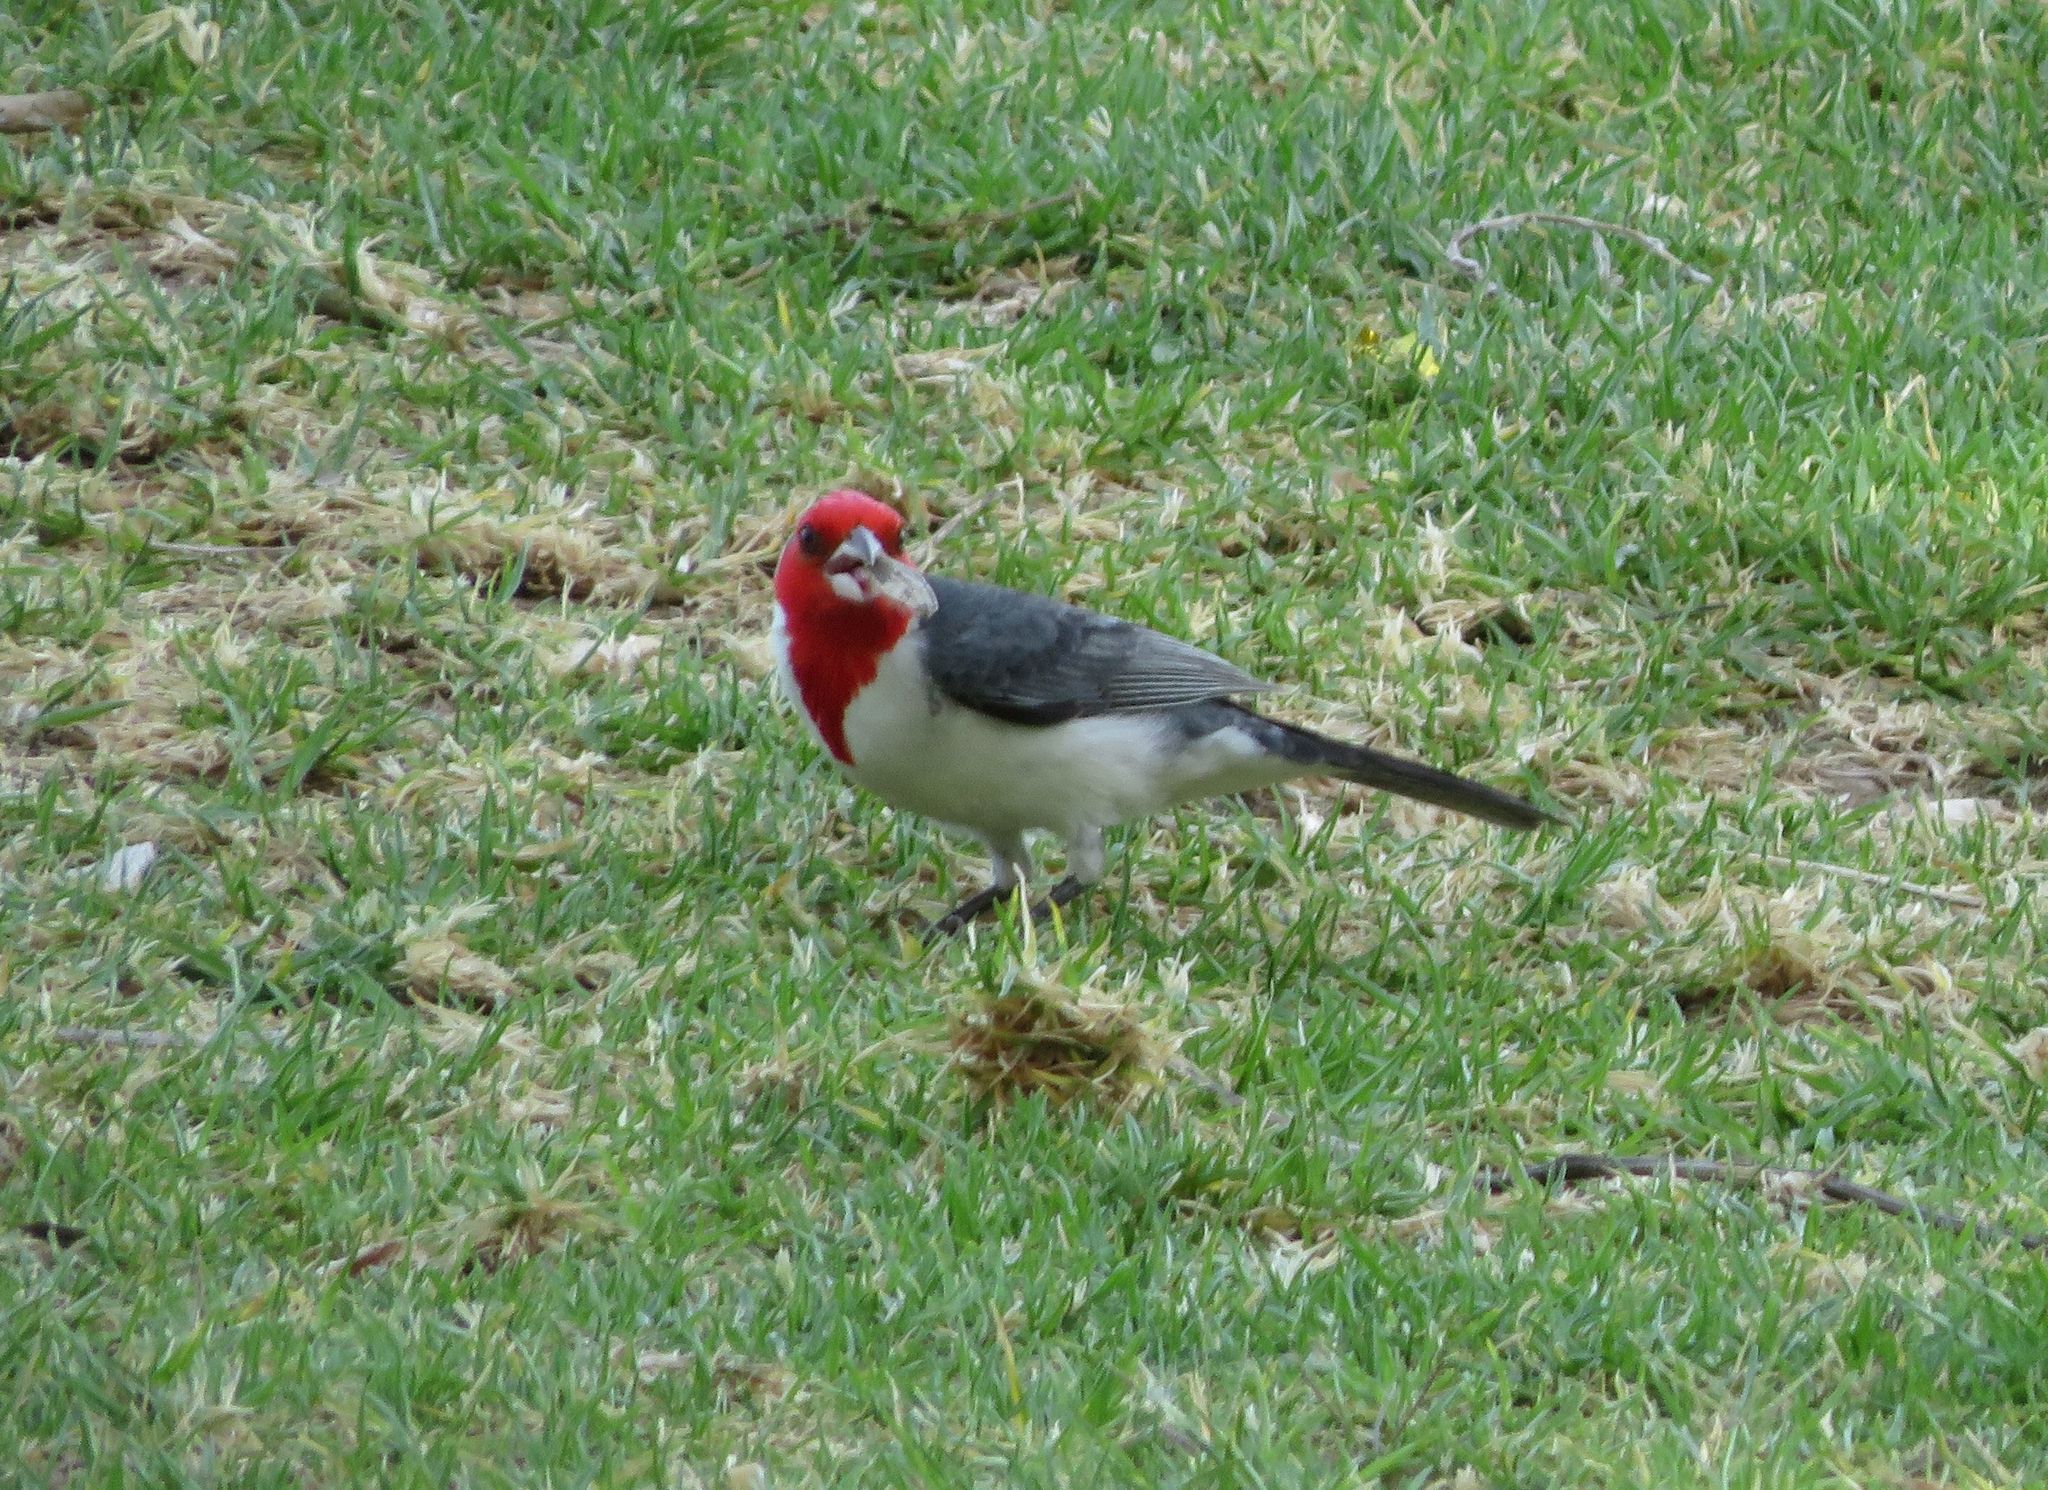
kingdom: Animalia
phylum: Chordata
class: Aves
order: Passeriformes
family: Thraupidae
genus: Paroaria
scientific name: Paroaria coronata
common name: Red-crested cardinal
